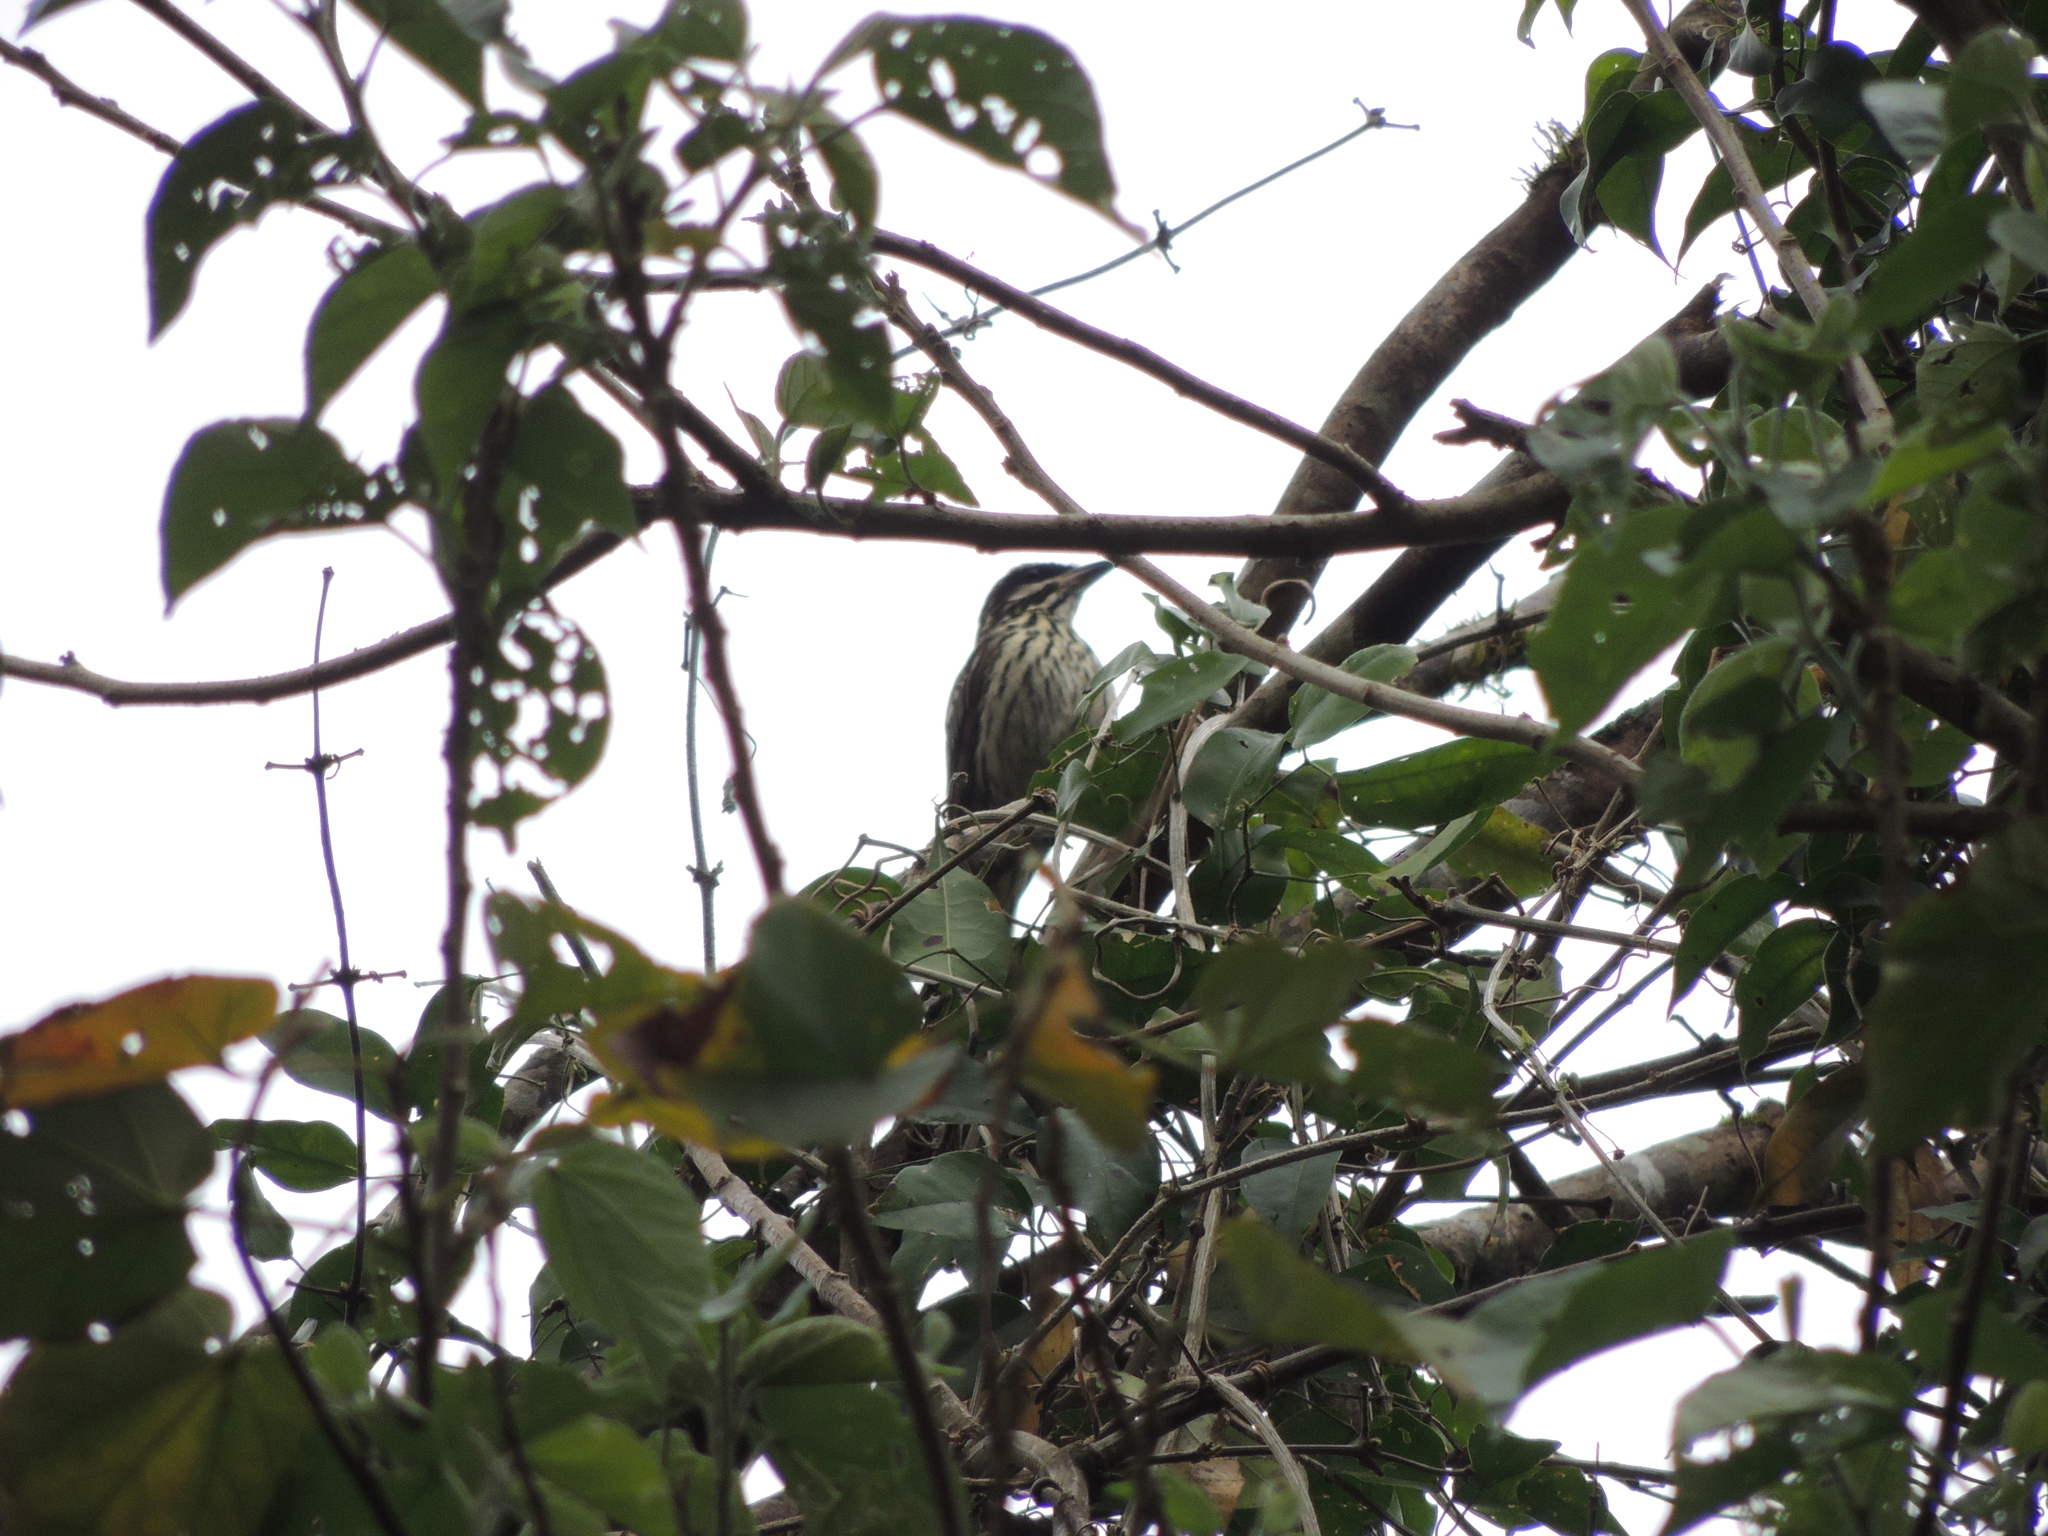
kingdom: Animalia
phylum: Chordata
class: Aves
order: Passeriformes
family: Tyrannidae
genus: Myiodynastes
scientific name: Myiodynastes maculatus
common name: Streaked flycatcher
